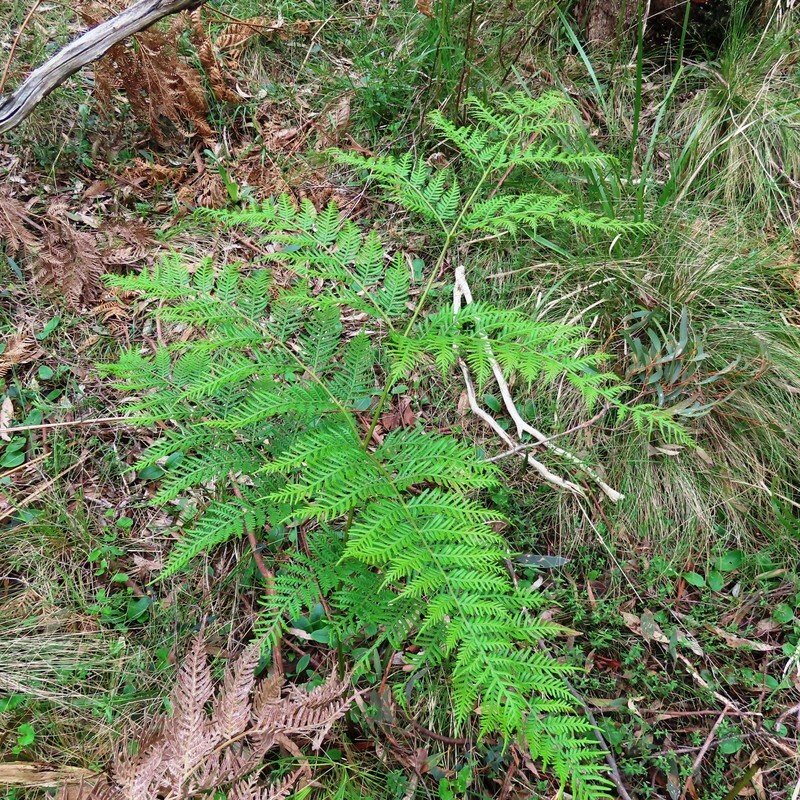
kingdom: Plantae
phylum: Tracheophyta
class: Polypodiopsida
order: Polypodiales
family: Dennstaedtiaceae
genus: Pteridium
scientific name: Pteridium esculentum
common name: Bracken fern
